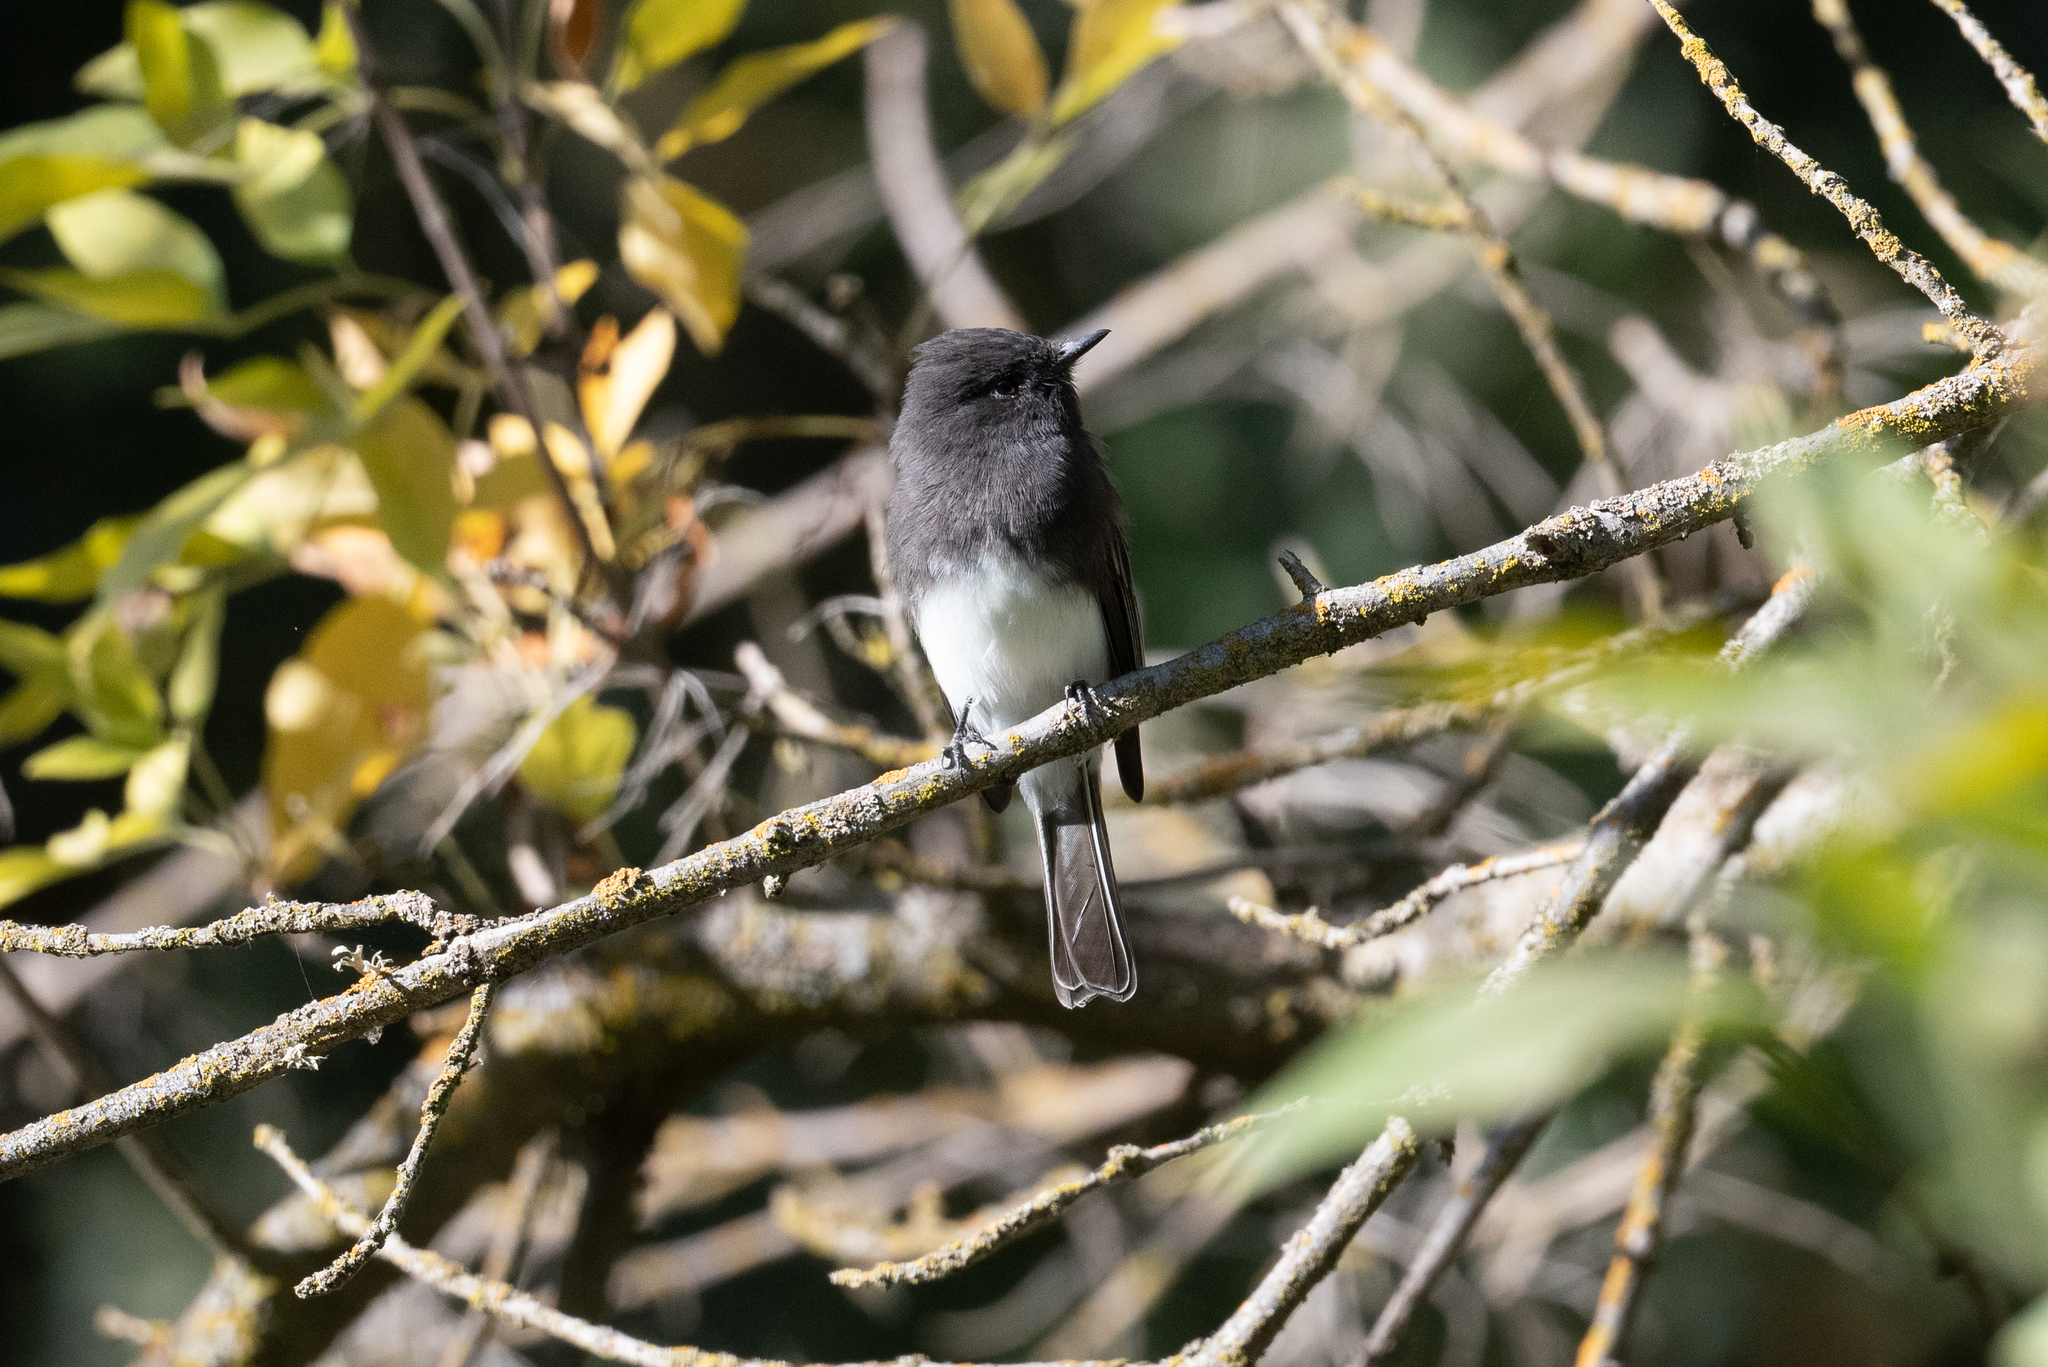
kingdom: Animalia
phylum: Chordata
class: Aves
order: Passeriformes
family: Tyrannidae
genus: Sayornis
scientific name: Sayornis nigricans
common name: Black phoebe
